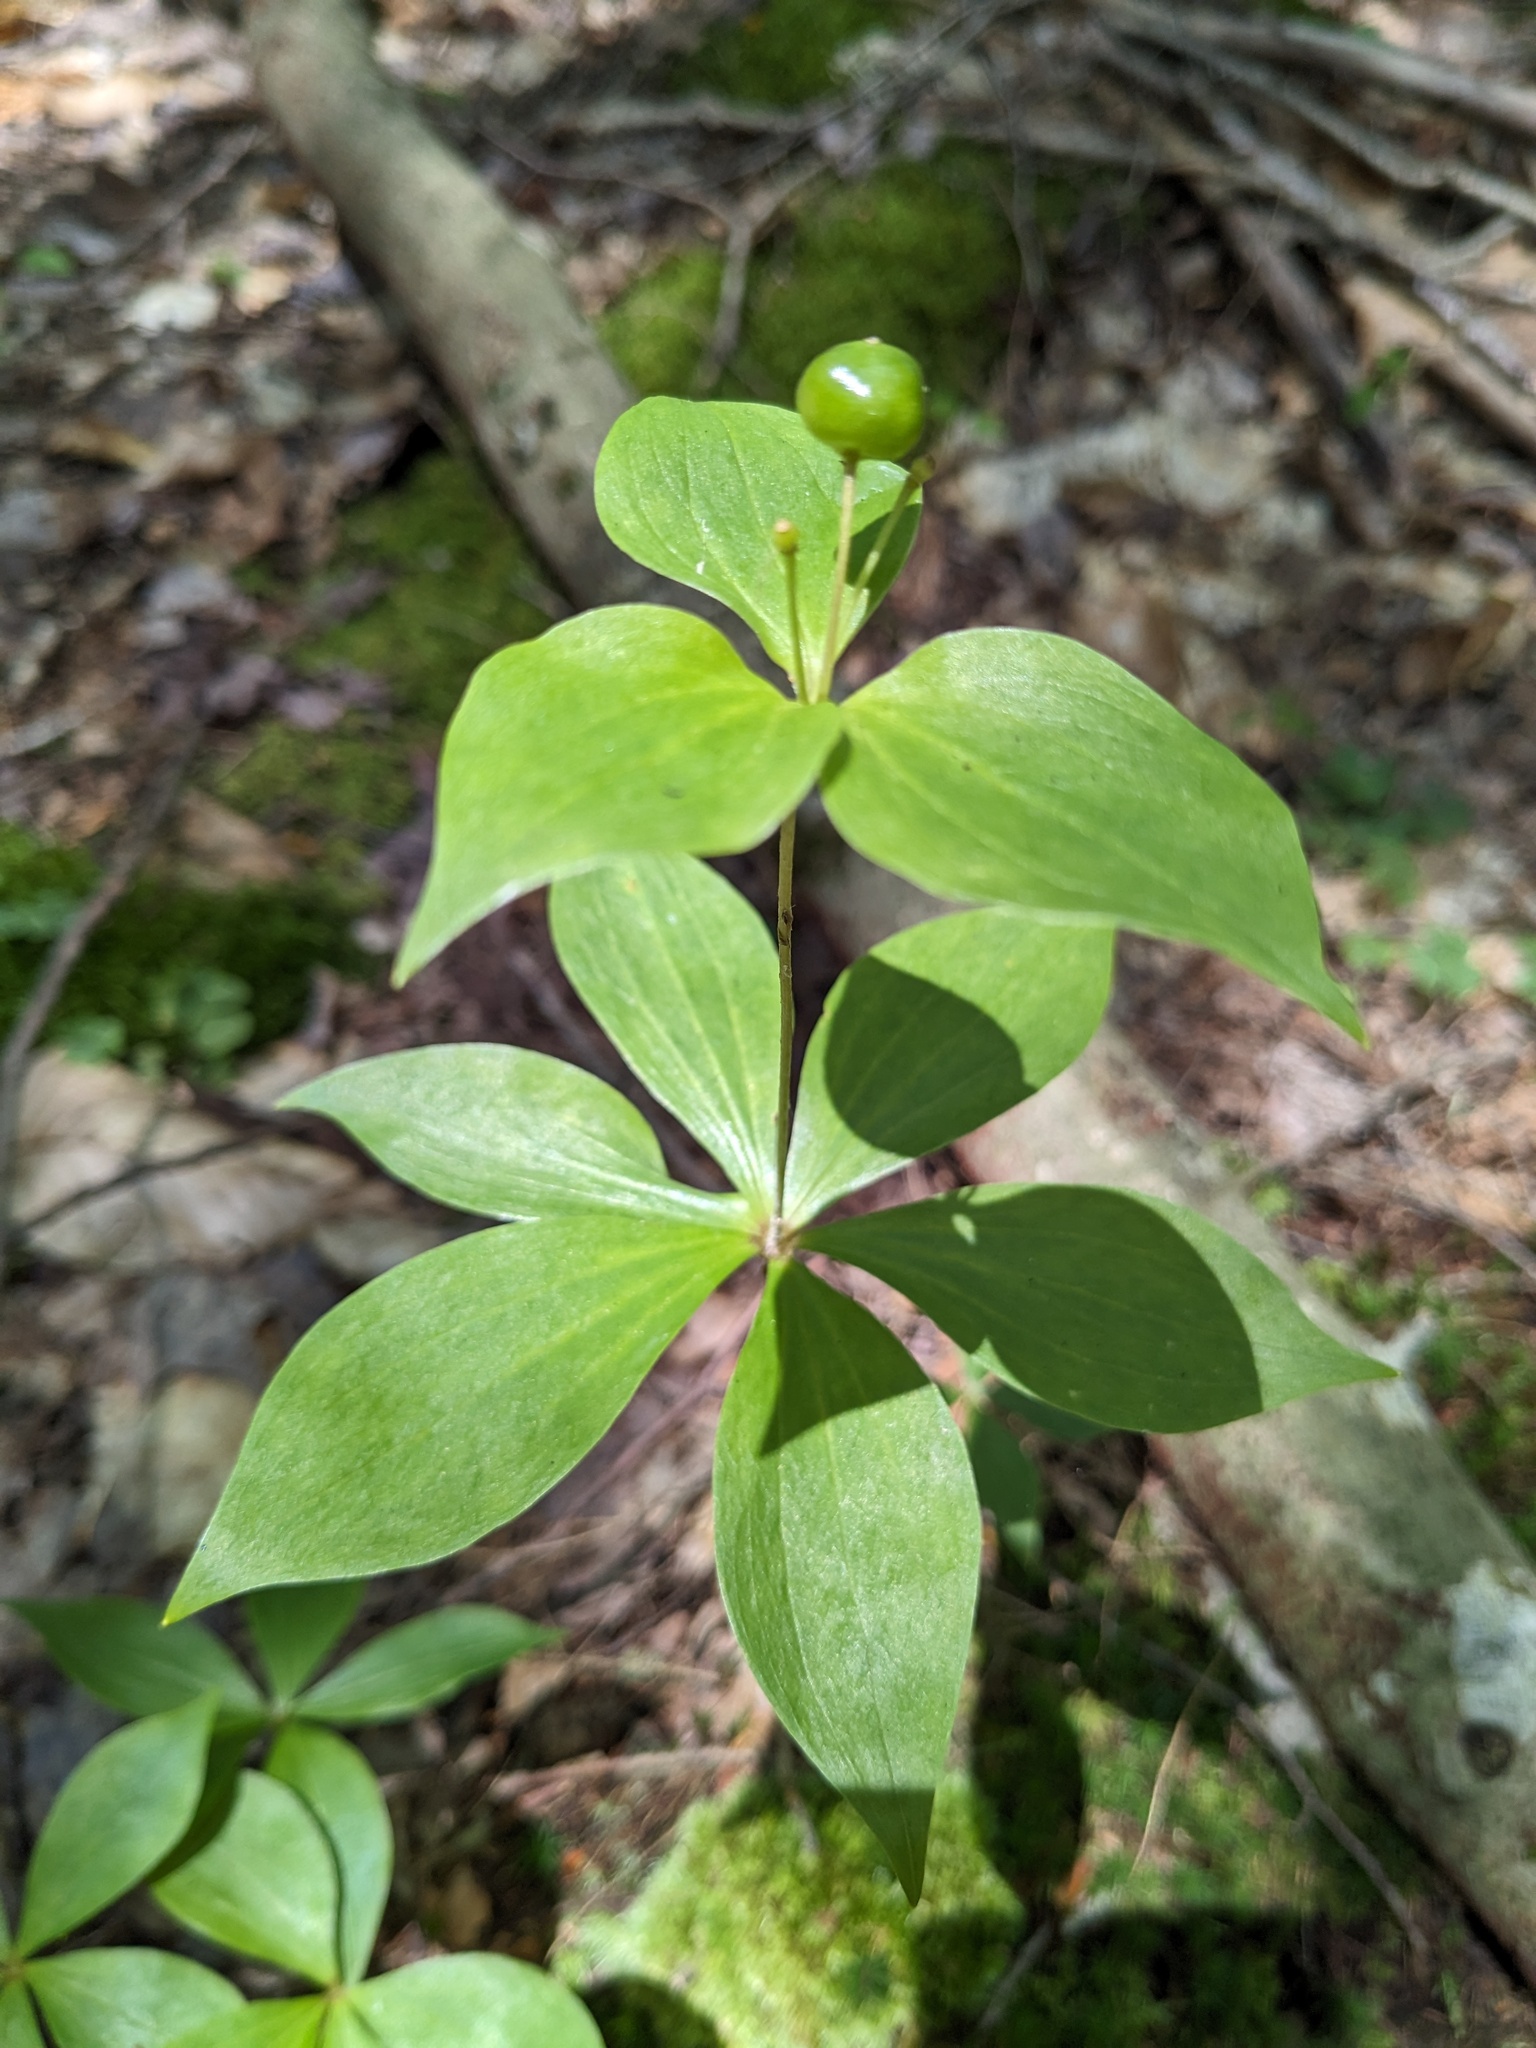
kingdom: Plantae
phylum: Tracheophyta
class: Liliopsida
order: Liliales
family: Liliaceae
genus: Medeola
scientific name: Medeola virginiana
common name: Indian cucumber-root
